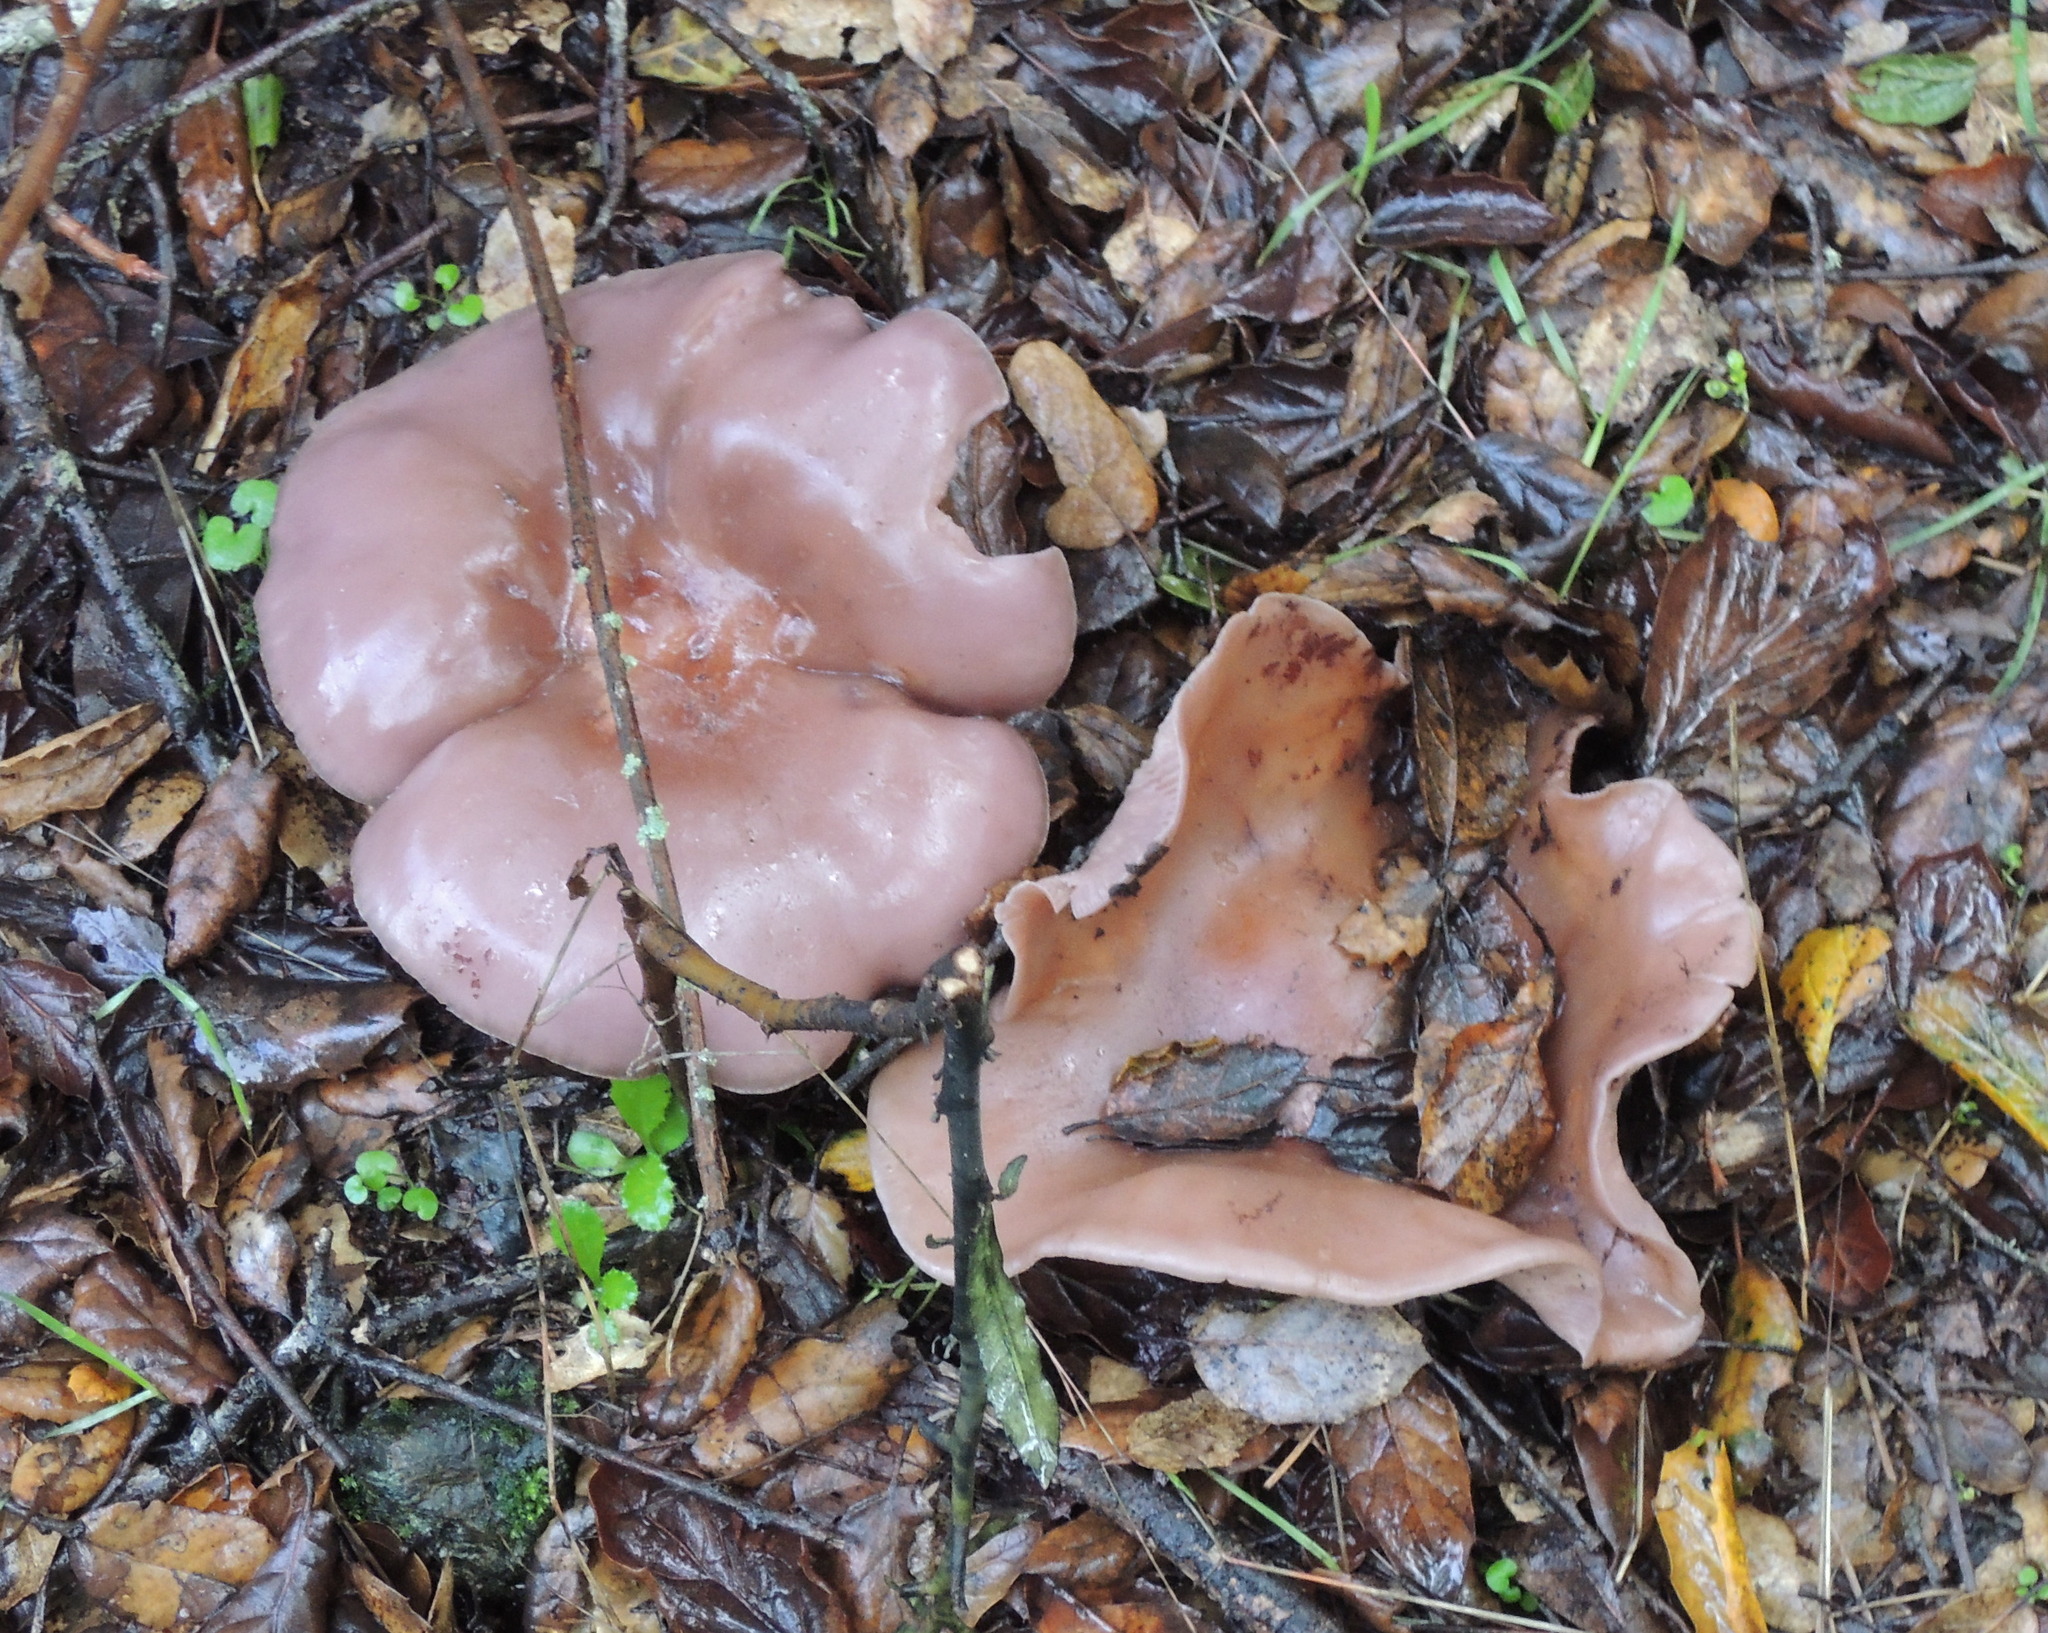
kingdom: Fungi
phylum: Basidiomycota
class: Agaricomycetes
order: Agaricales
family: Tricholomataceae
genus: Collybia
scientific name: Collybia
